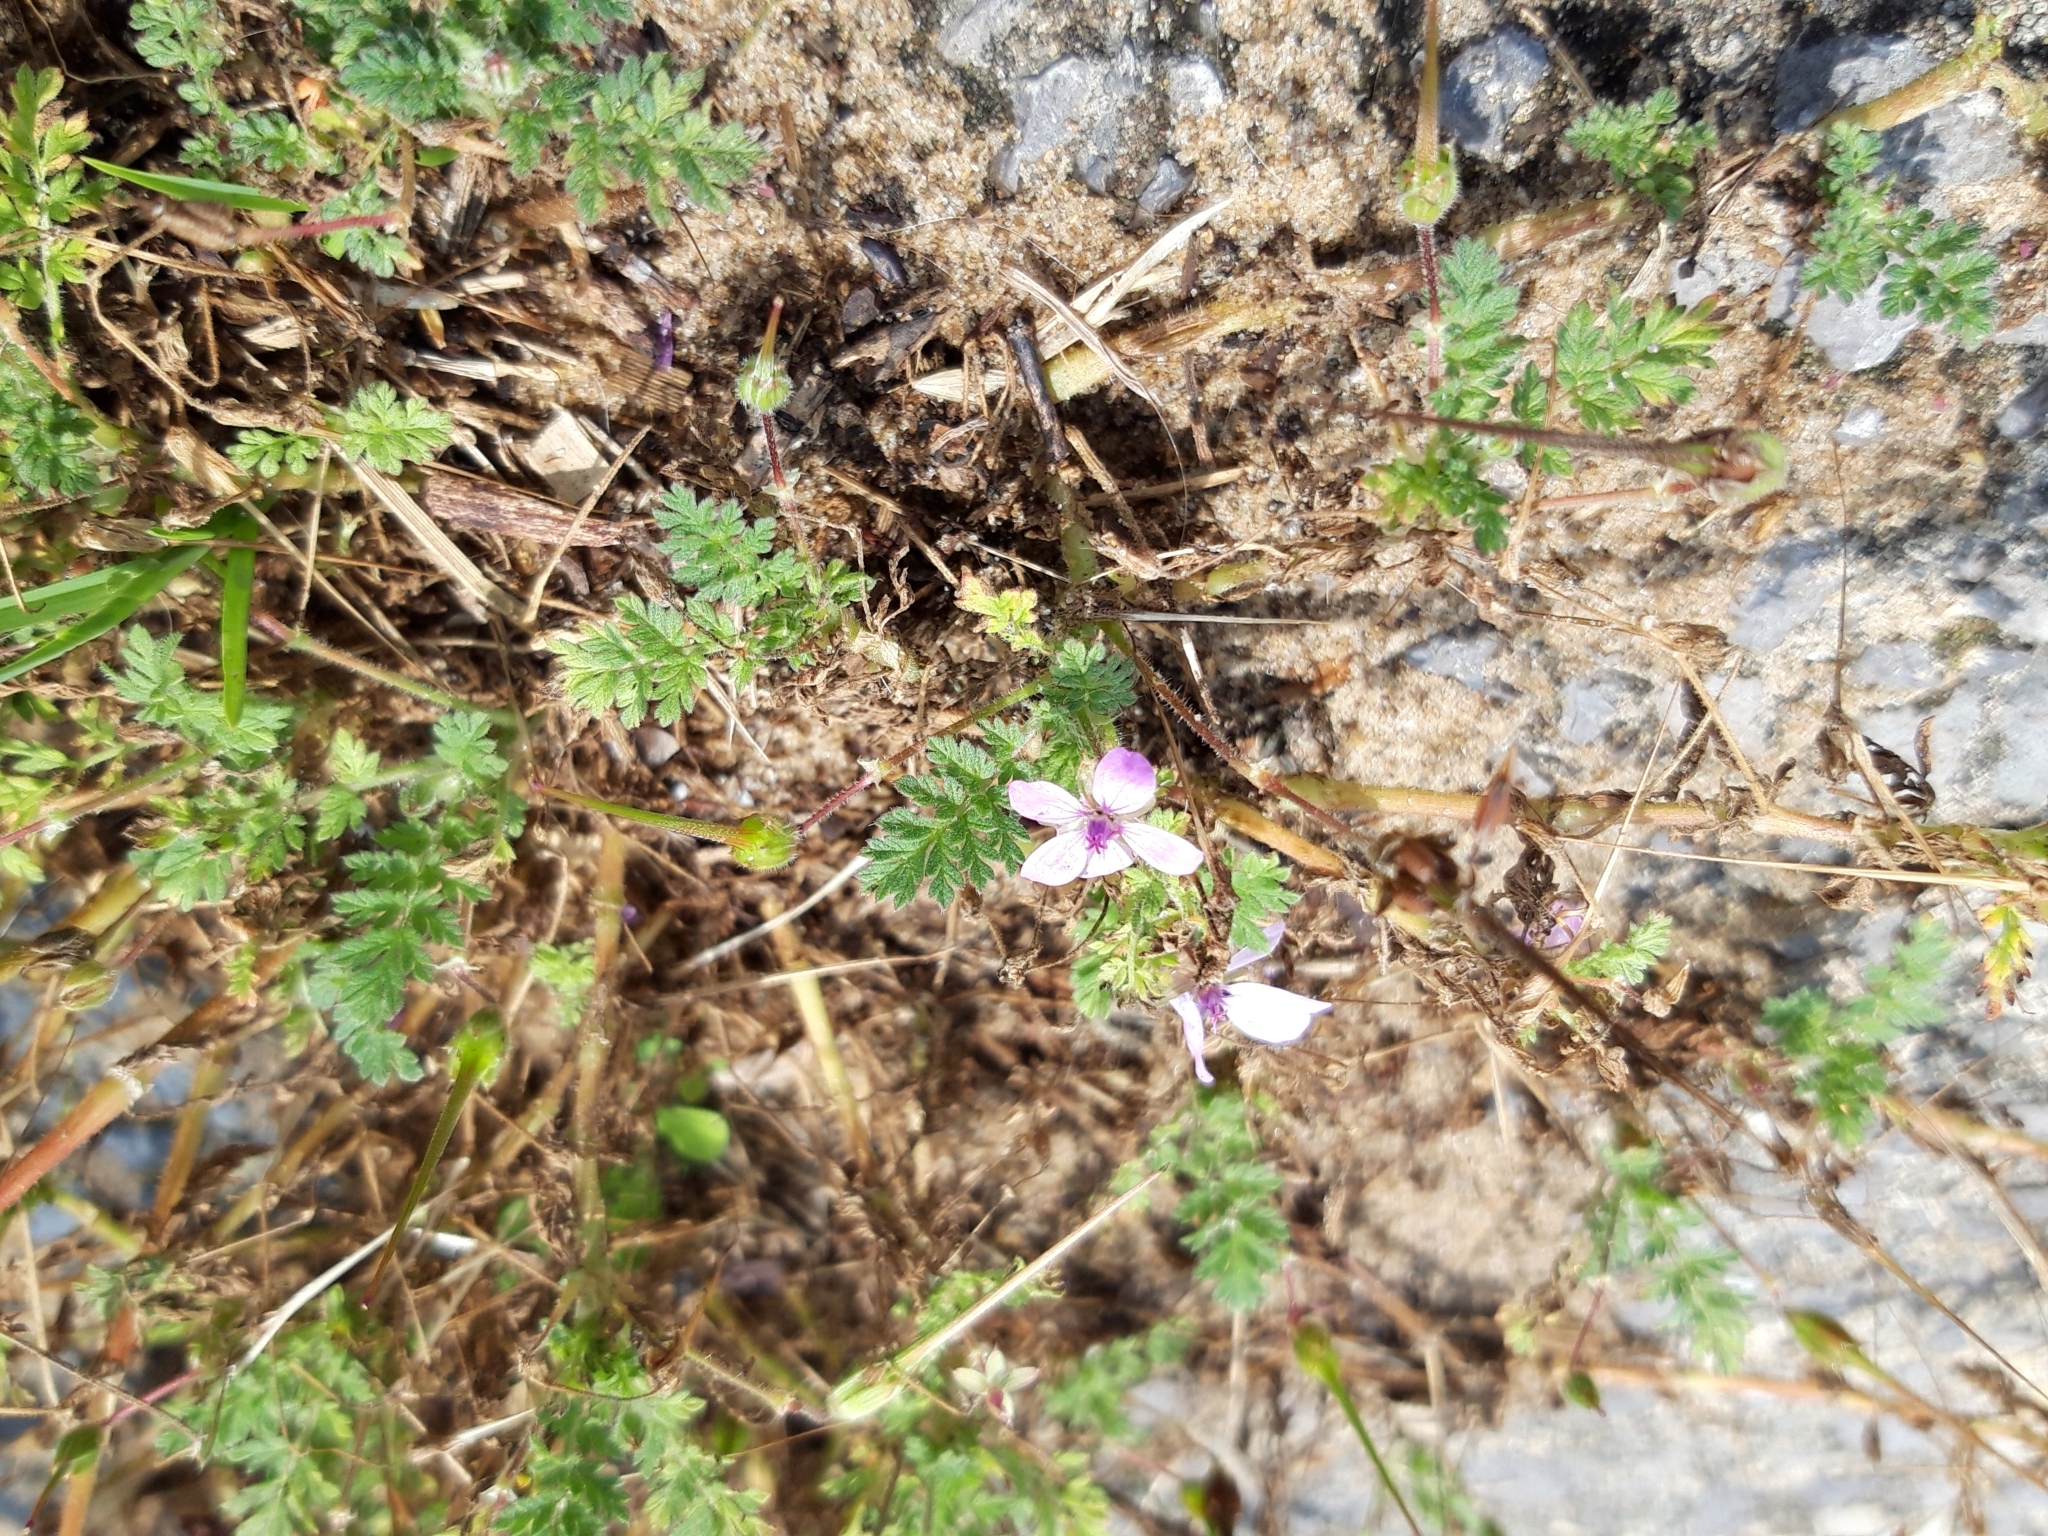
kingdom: Plantae
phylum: Tracheophyta
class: Magnoliopsida
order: Geraniales
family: Geraniaceae
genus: Erodium
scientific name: Erodium cicutarium
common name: Common stork's-bill
